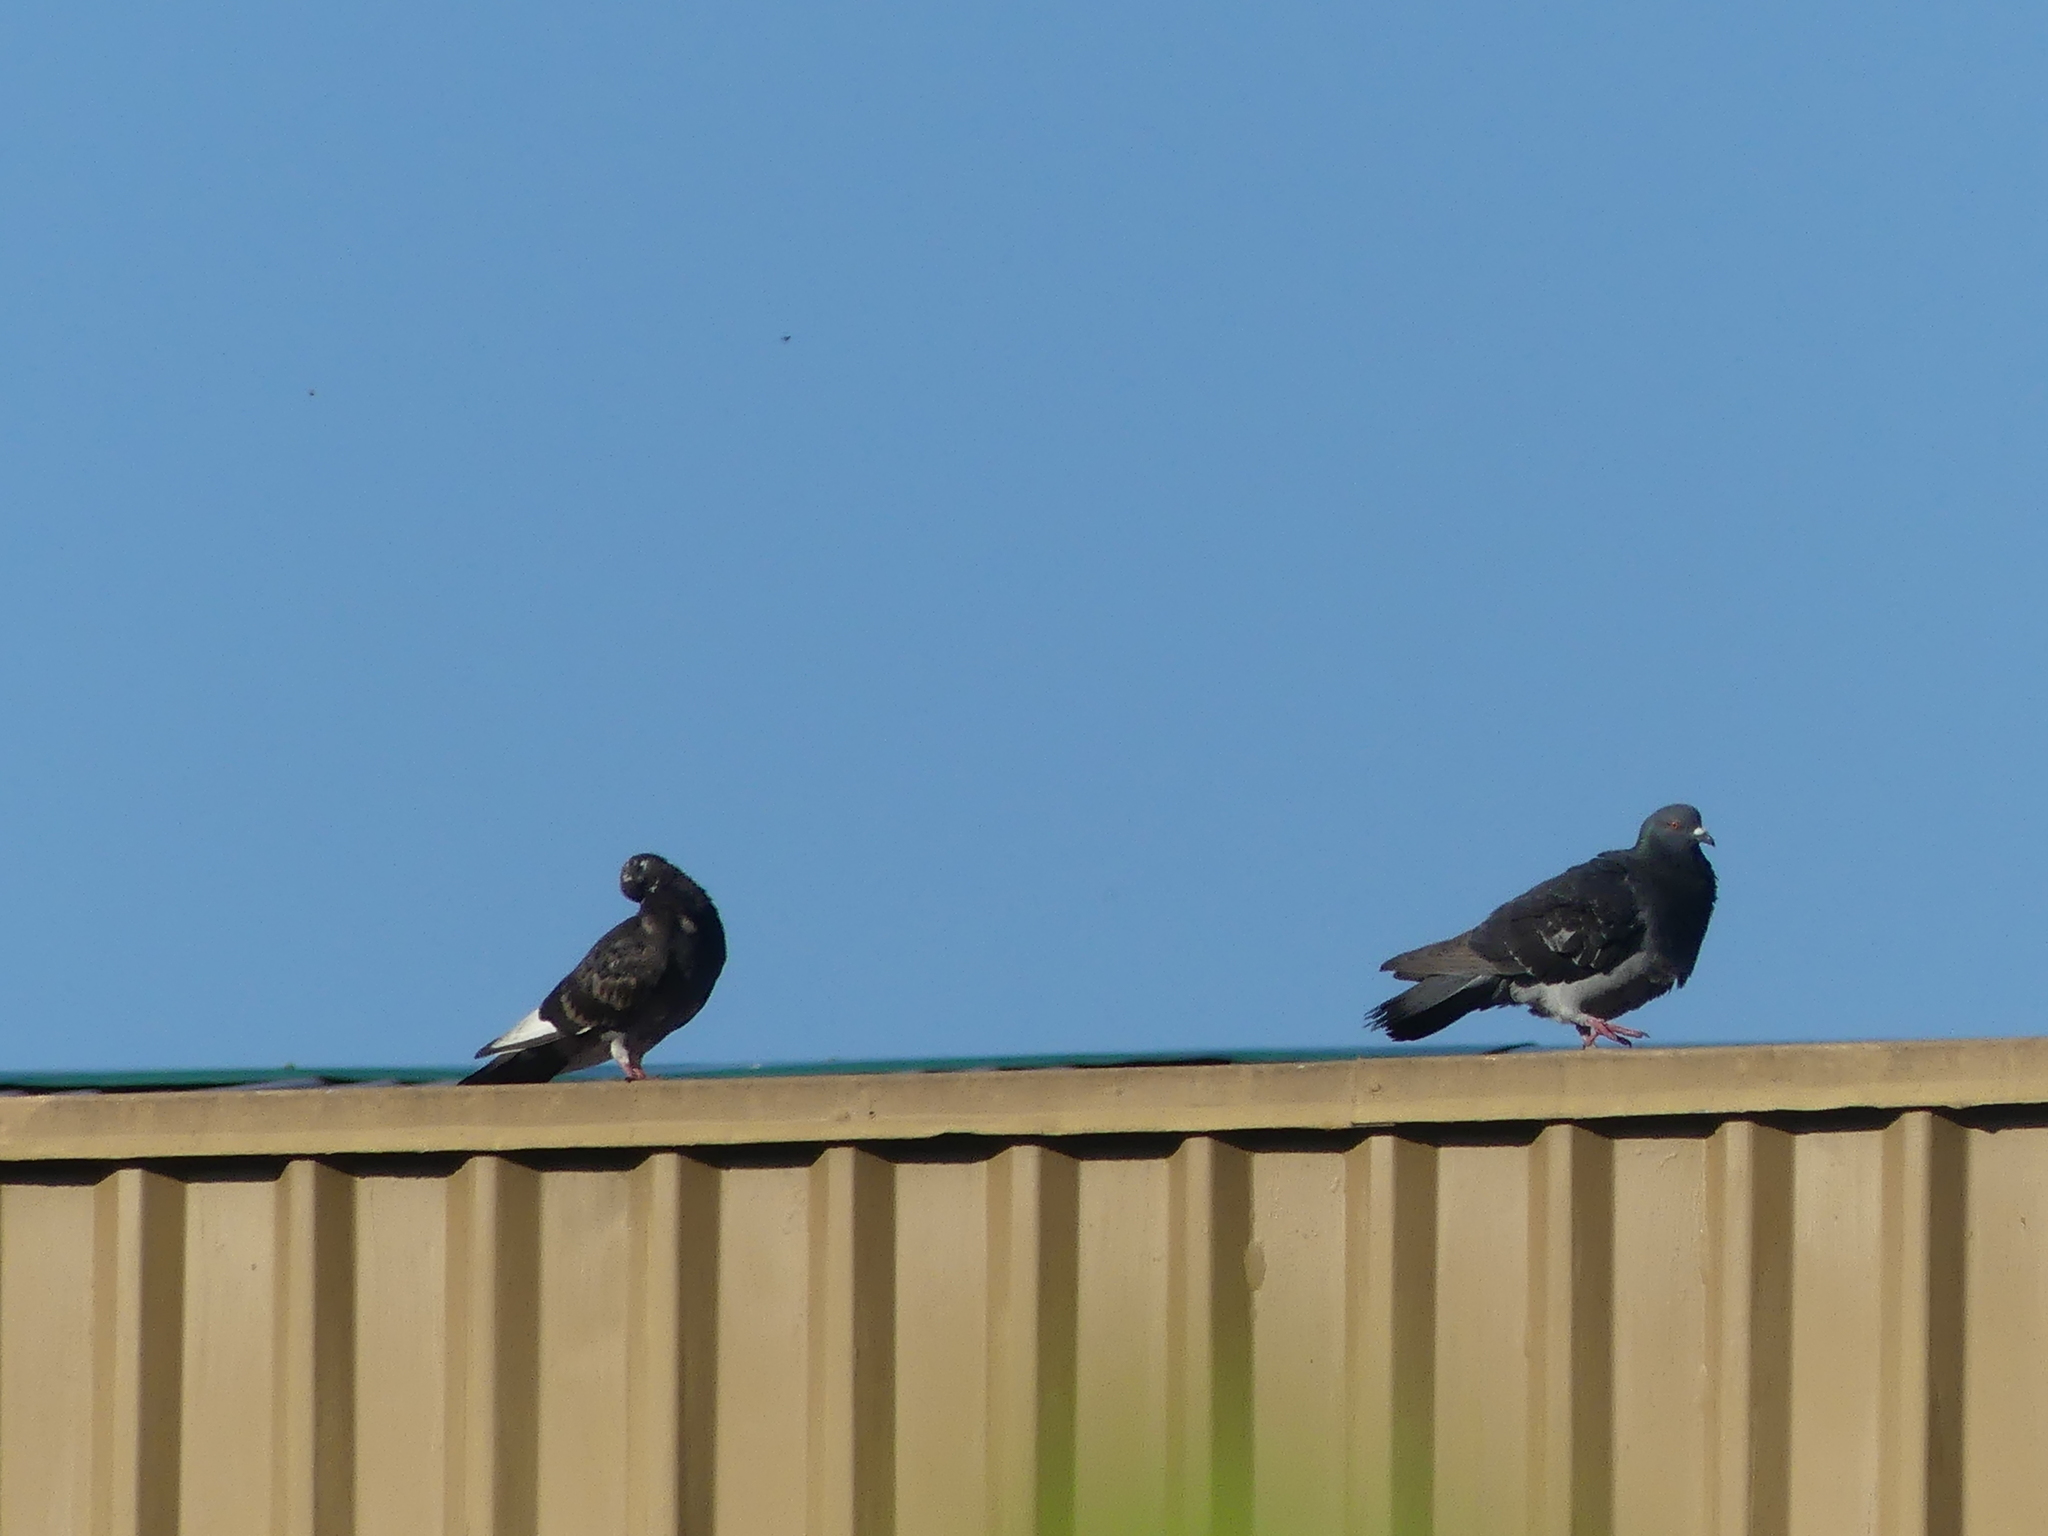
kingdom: Animalia
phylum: Chordata
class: Aves
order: Columbiformes
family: Columbidae
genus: Columba
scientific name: Columba livia
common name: Rock pigeon
